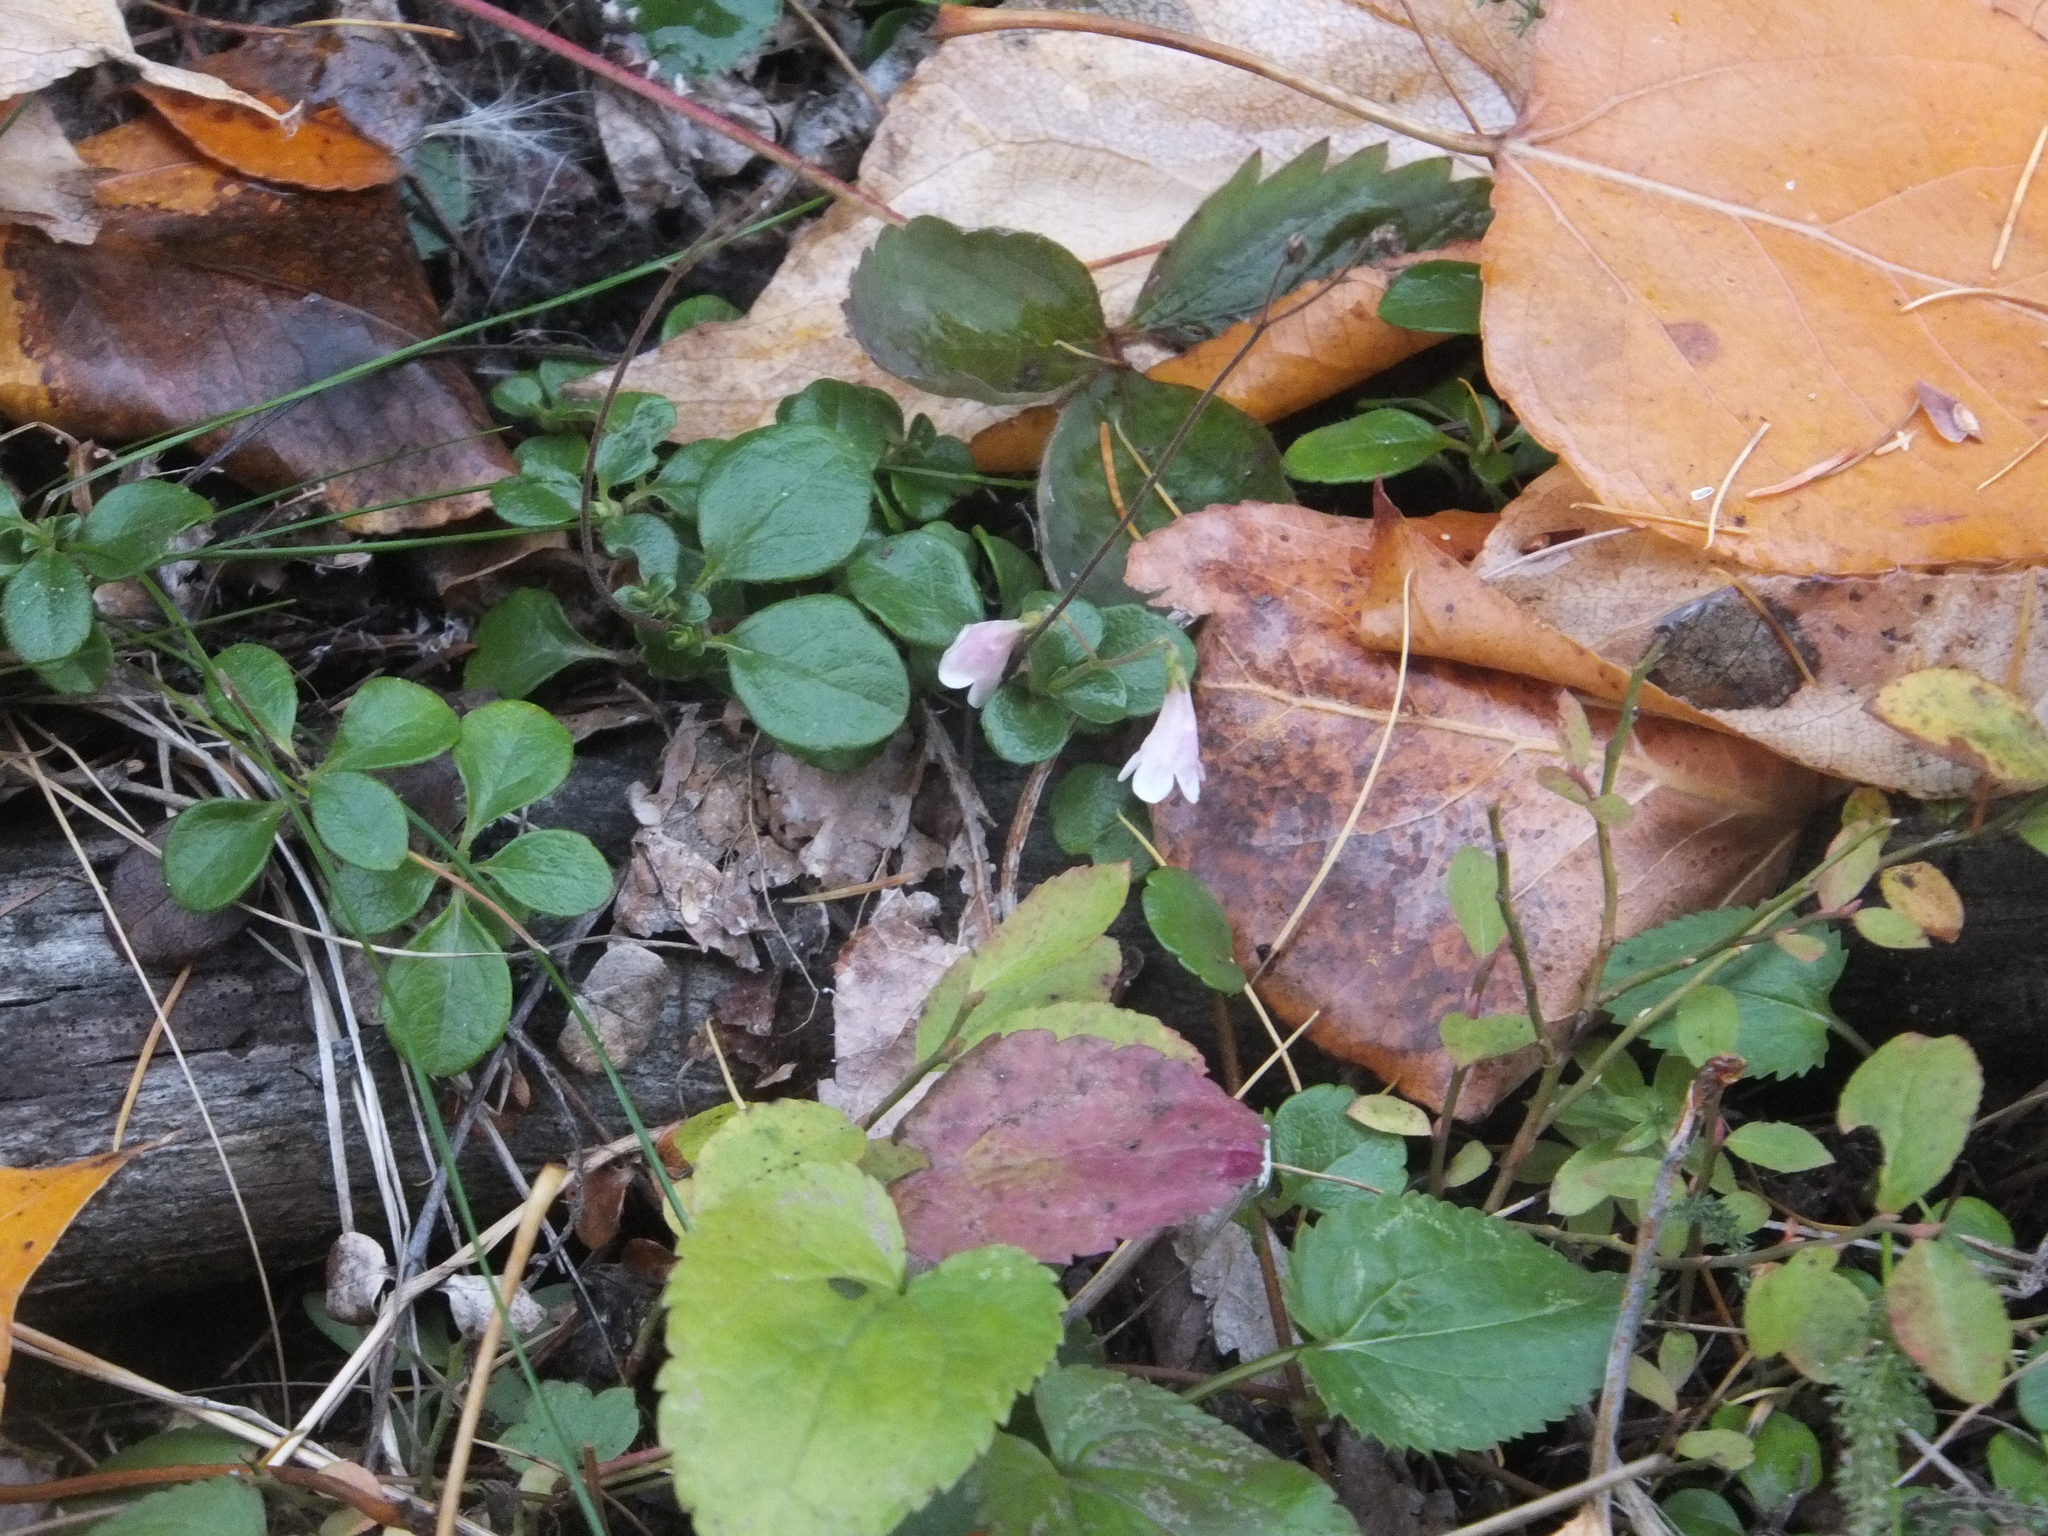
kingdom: Plantae
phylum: Tracheophyta
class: Magnoliopsida
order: Dipsacales
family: Caprifoliaceae
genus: Linnaea
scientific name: Linnaea borealis
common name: Twinflower
